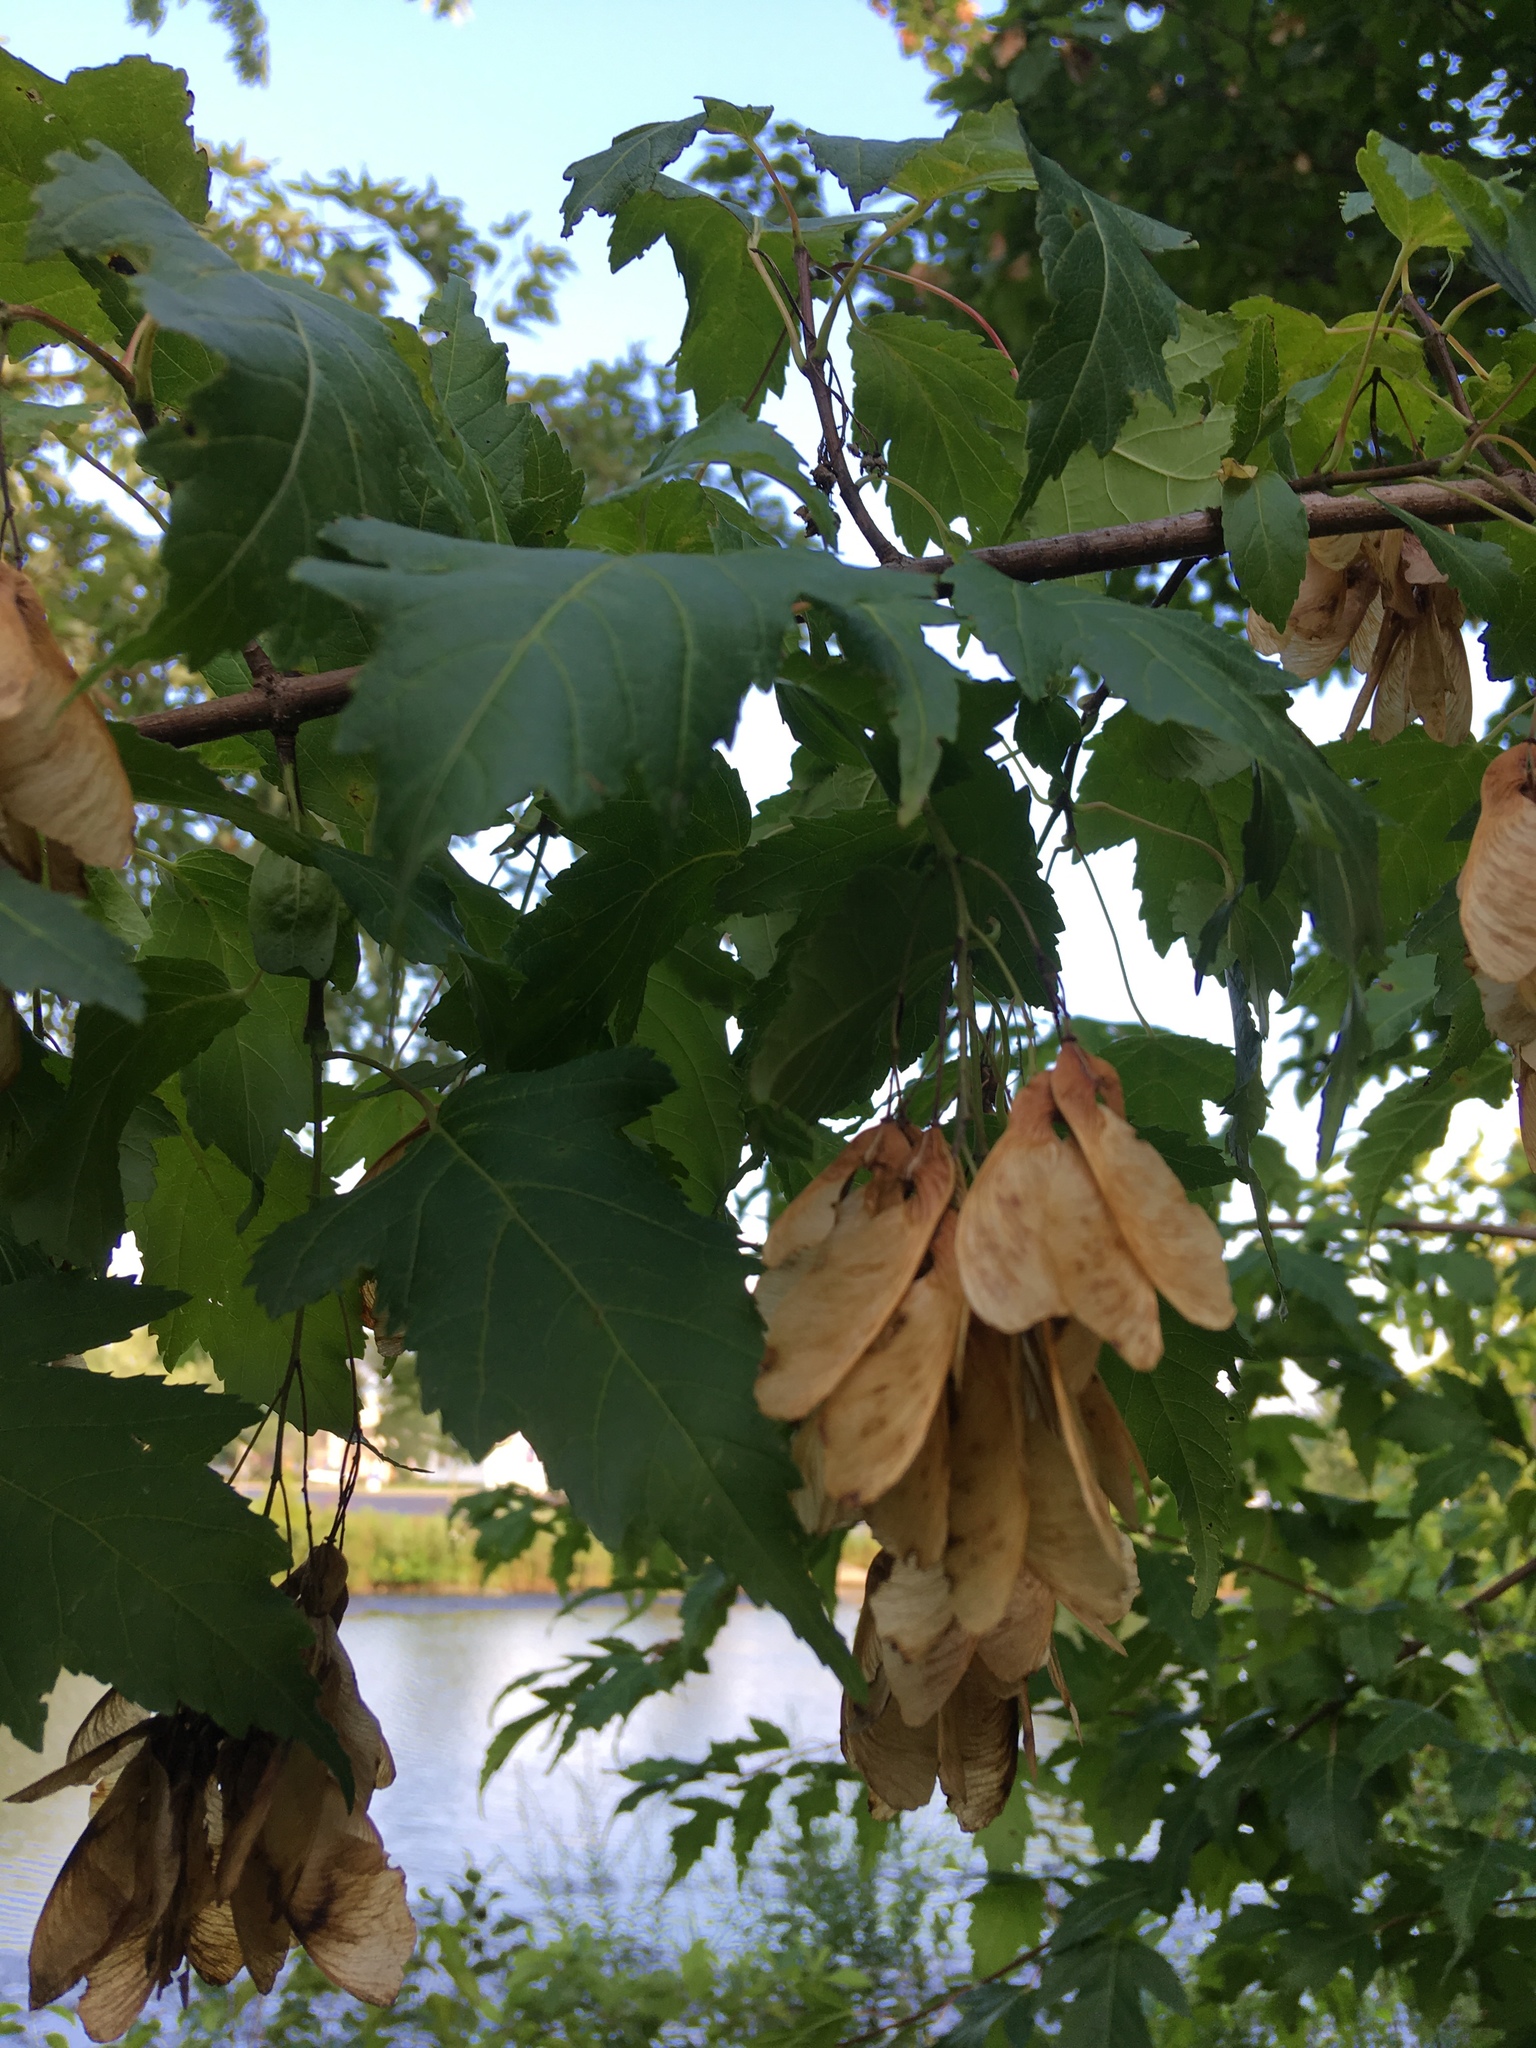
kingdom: Plantae
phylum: Tracheophyta
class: Magnoliopsida
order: Sapindales
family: Sapindaceae
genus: Acer
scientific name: Acer rubrum
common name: Red maple
